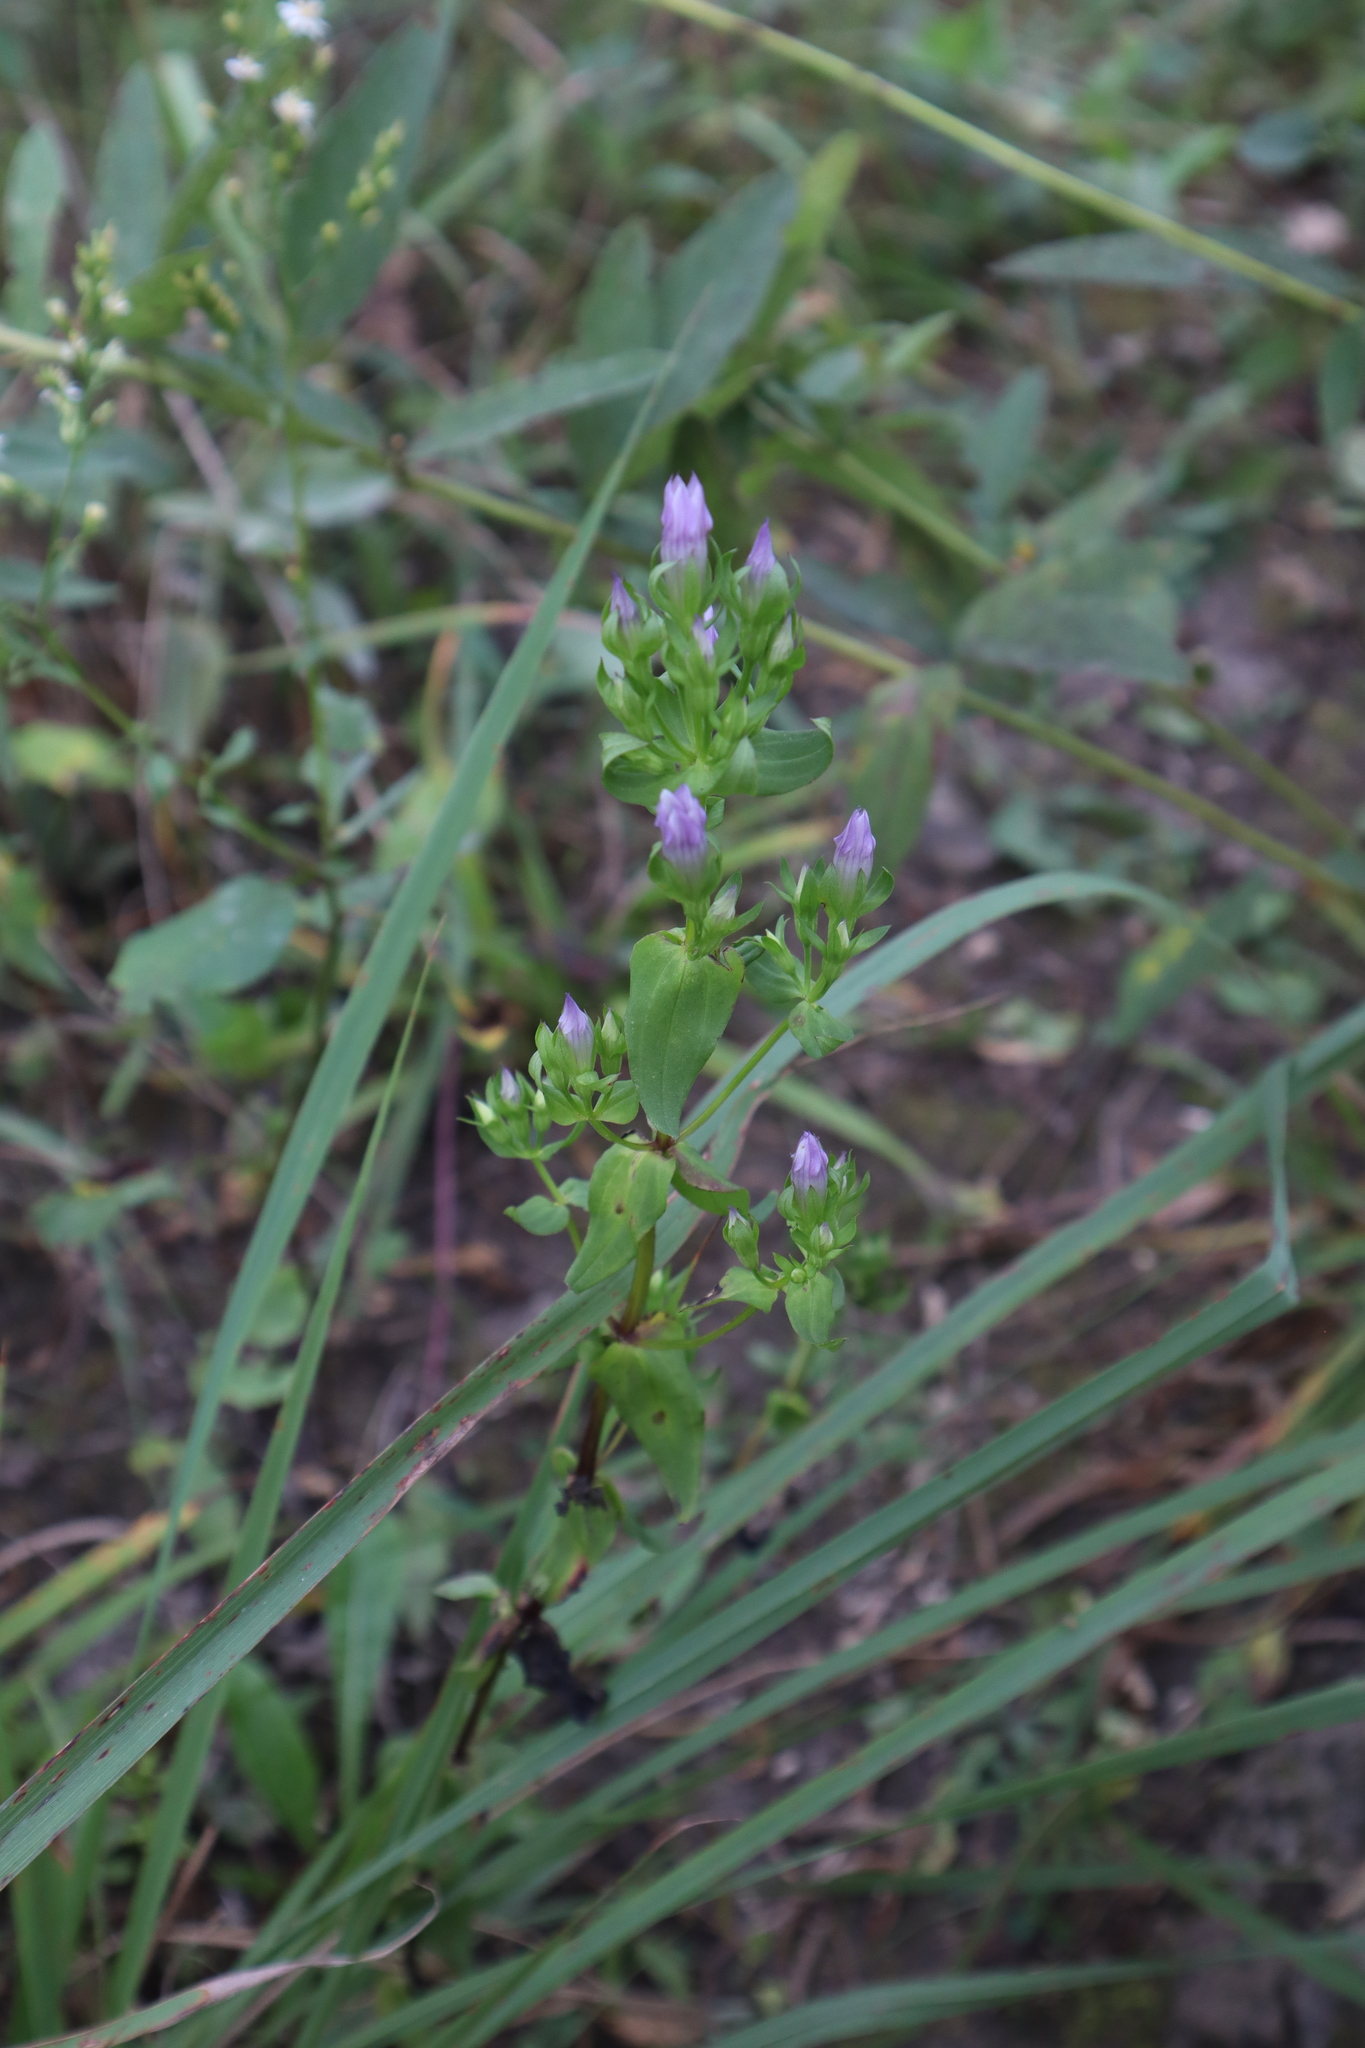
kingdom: Plantae
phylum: Tracheophyta
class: Magnoliopsida
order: Gentianales
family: Gentianaceae
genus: Gentianella
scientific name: Gentianella quinquefolia
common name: Agueweed
